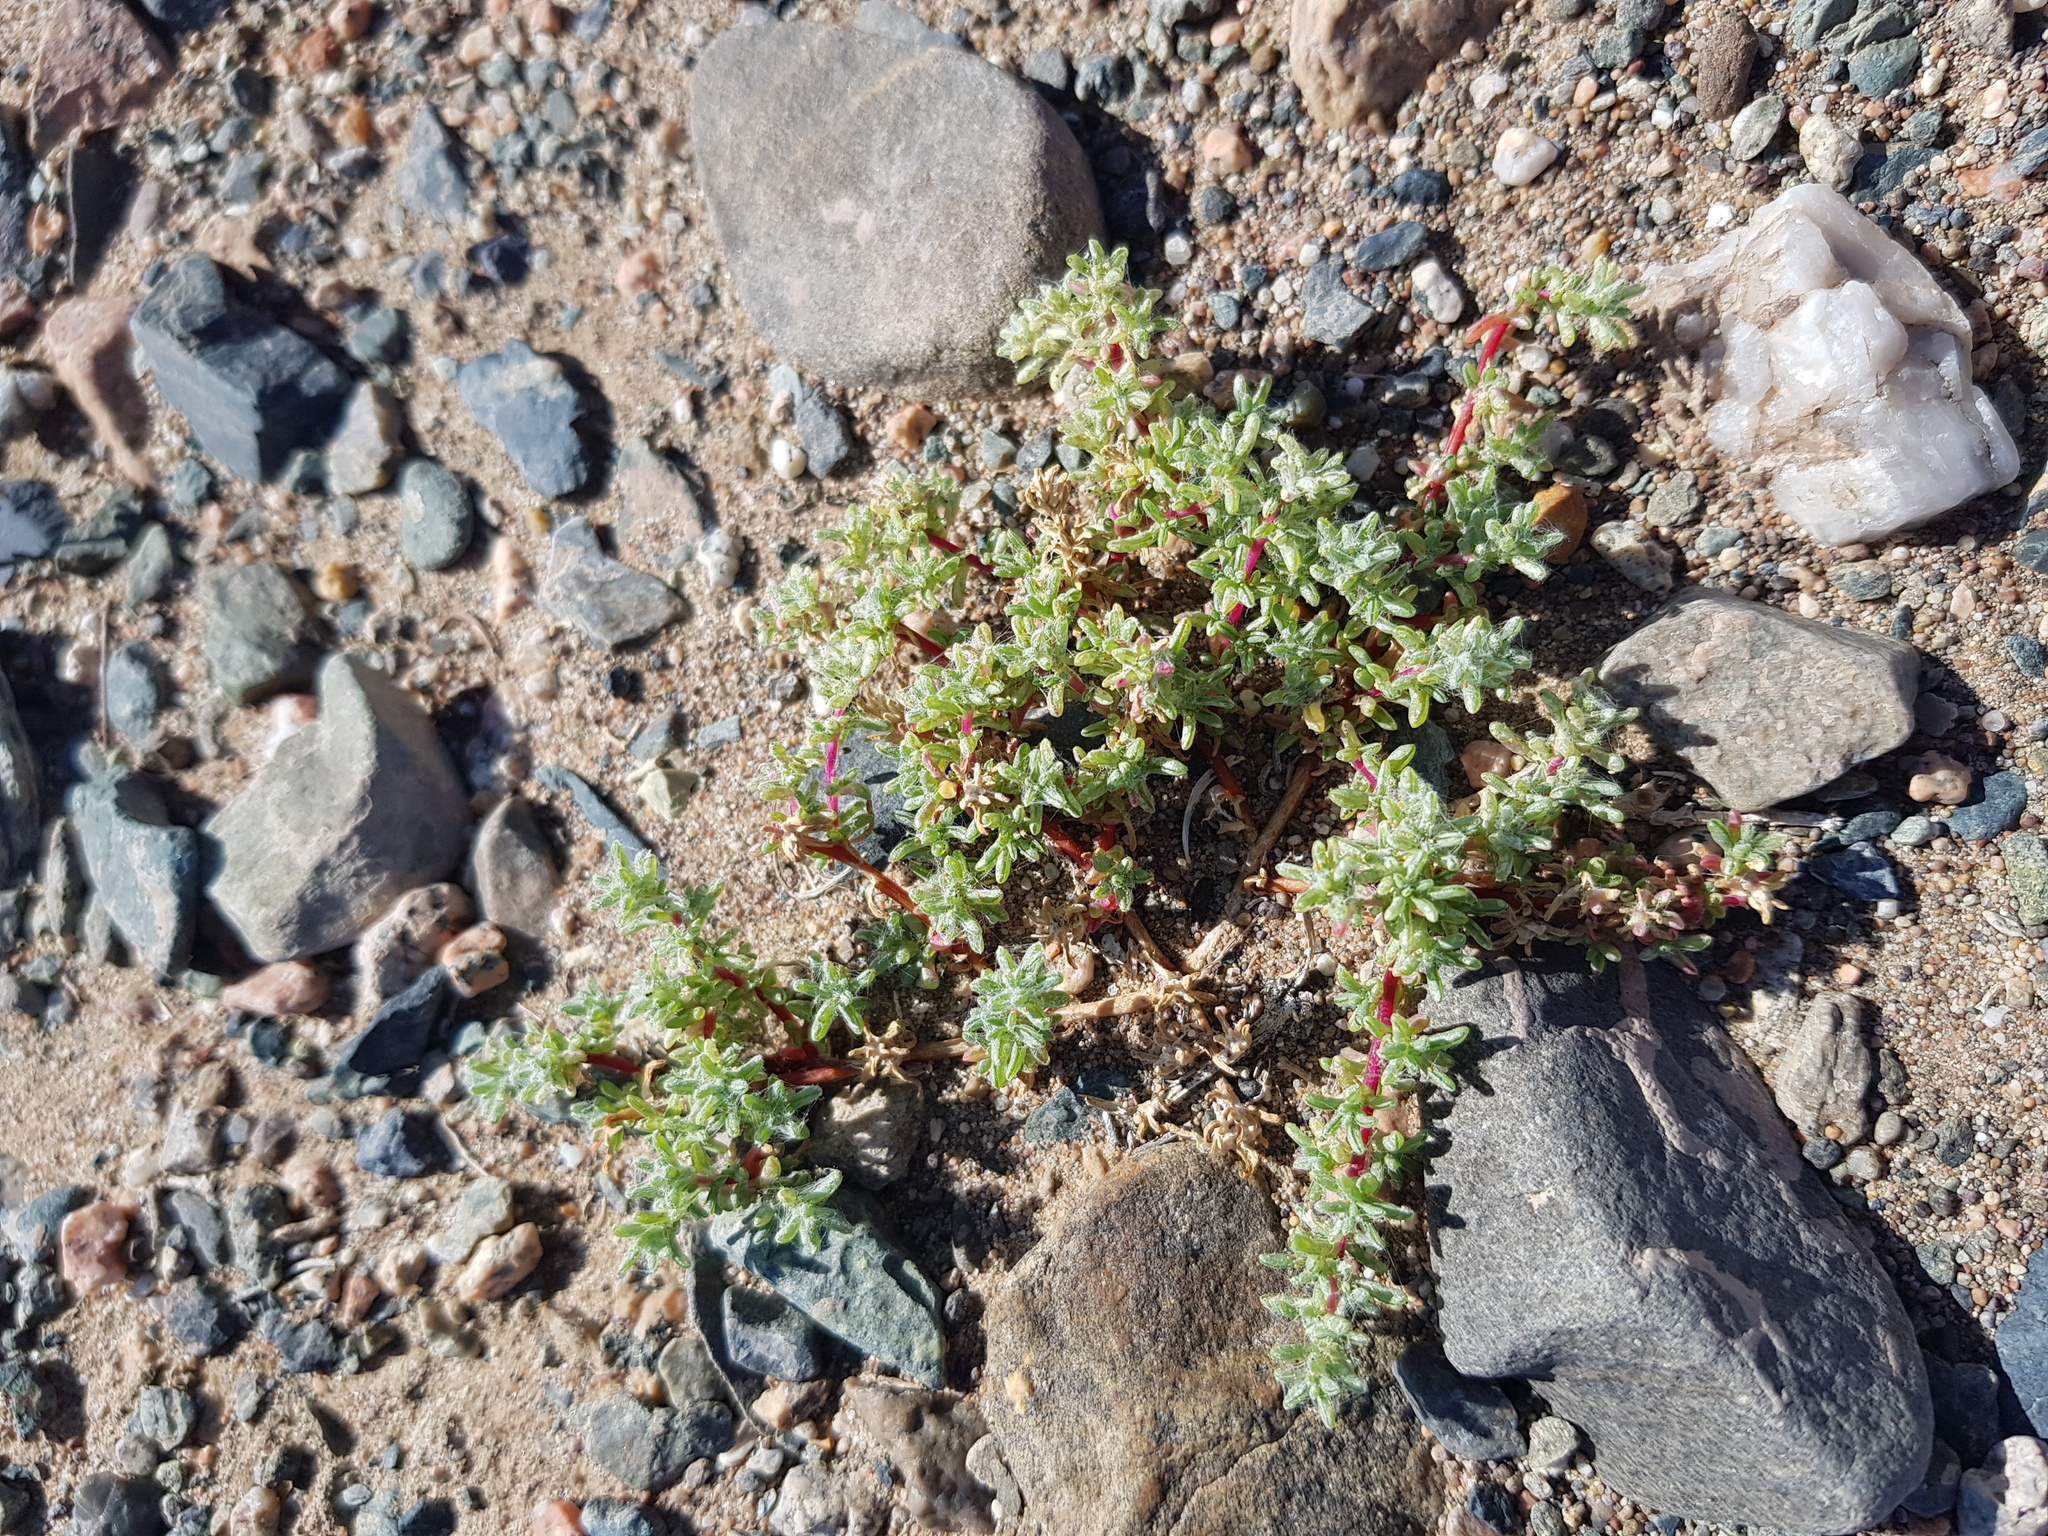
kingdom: Plantae
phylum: Tracheophyta
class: Magnoliopsida
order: Caryophyllales
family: Amaranthaceae
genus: Halogeton
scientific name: Halogeton arachnoides
